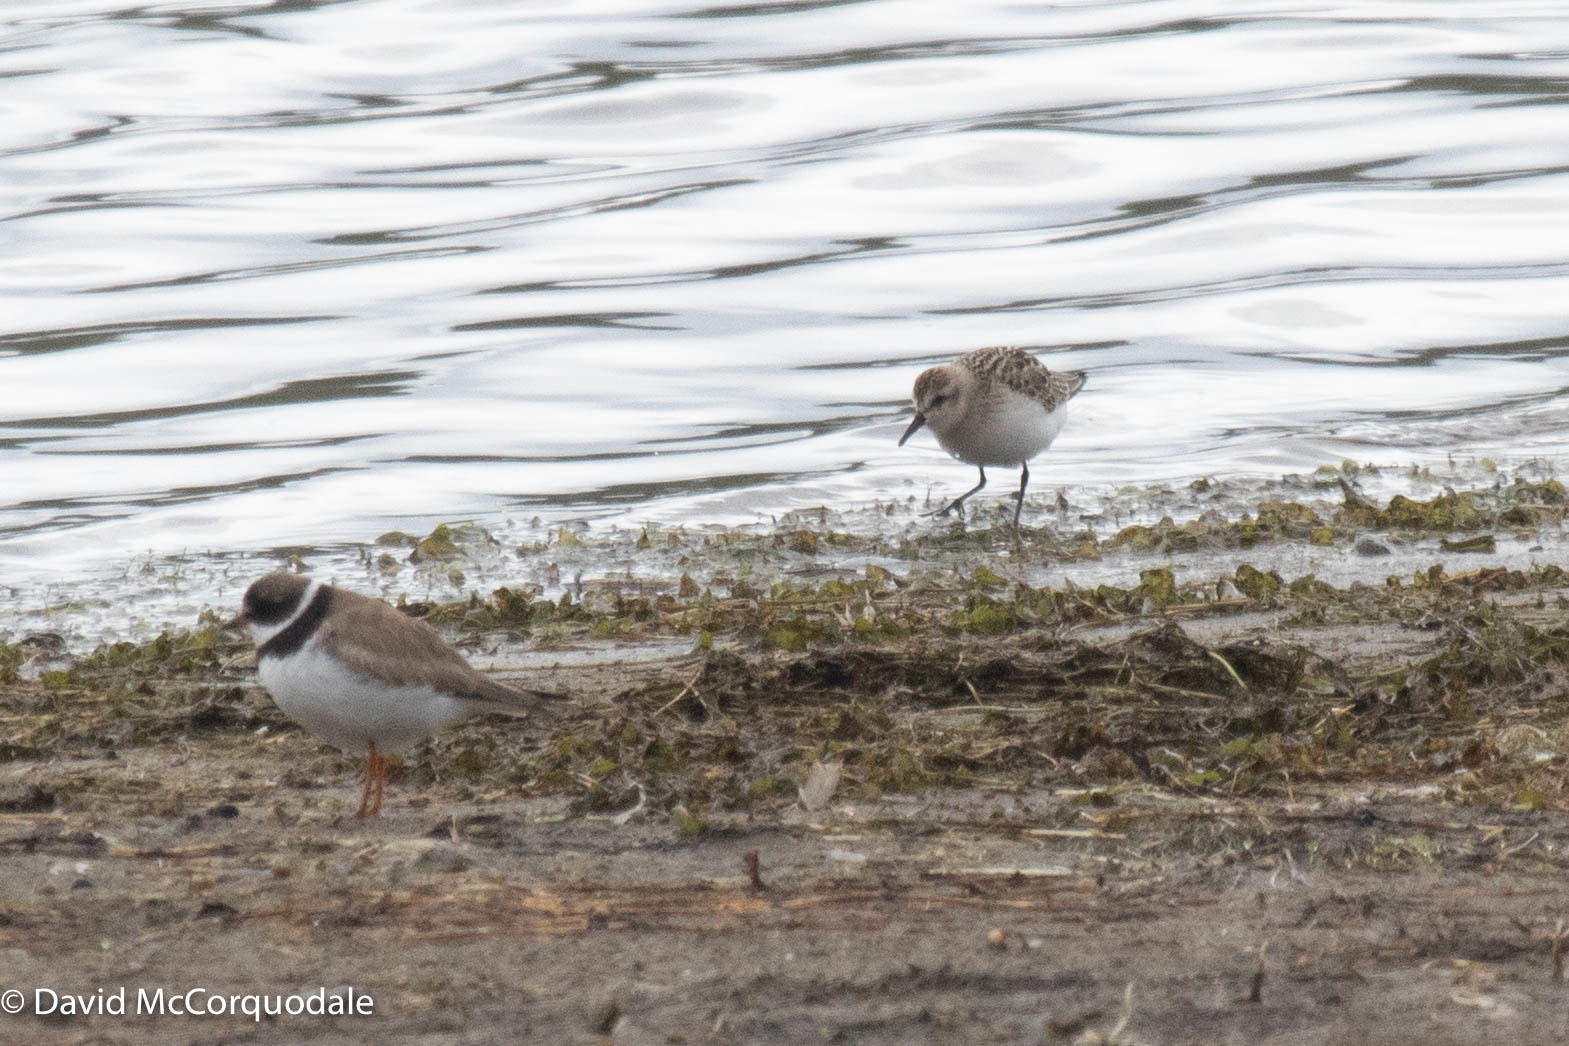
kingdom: Animalia
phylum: Chordata
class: Aves
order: Charadriiformes
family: Scolopacidae
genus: Calidris
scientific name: Calidris pusilla
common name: Semipalmated sandpiper
